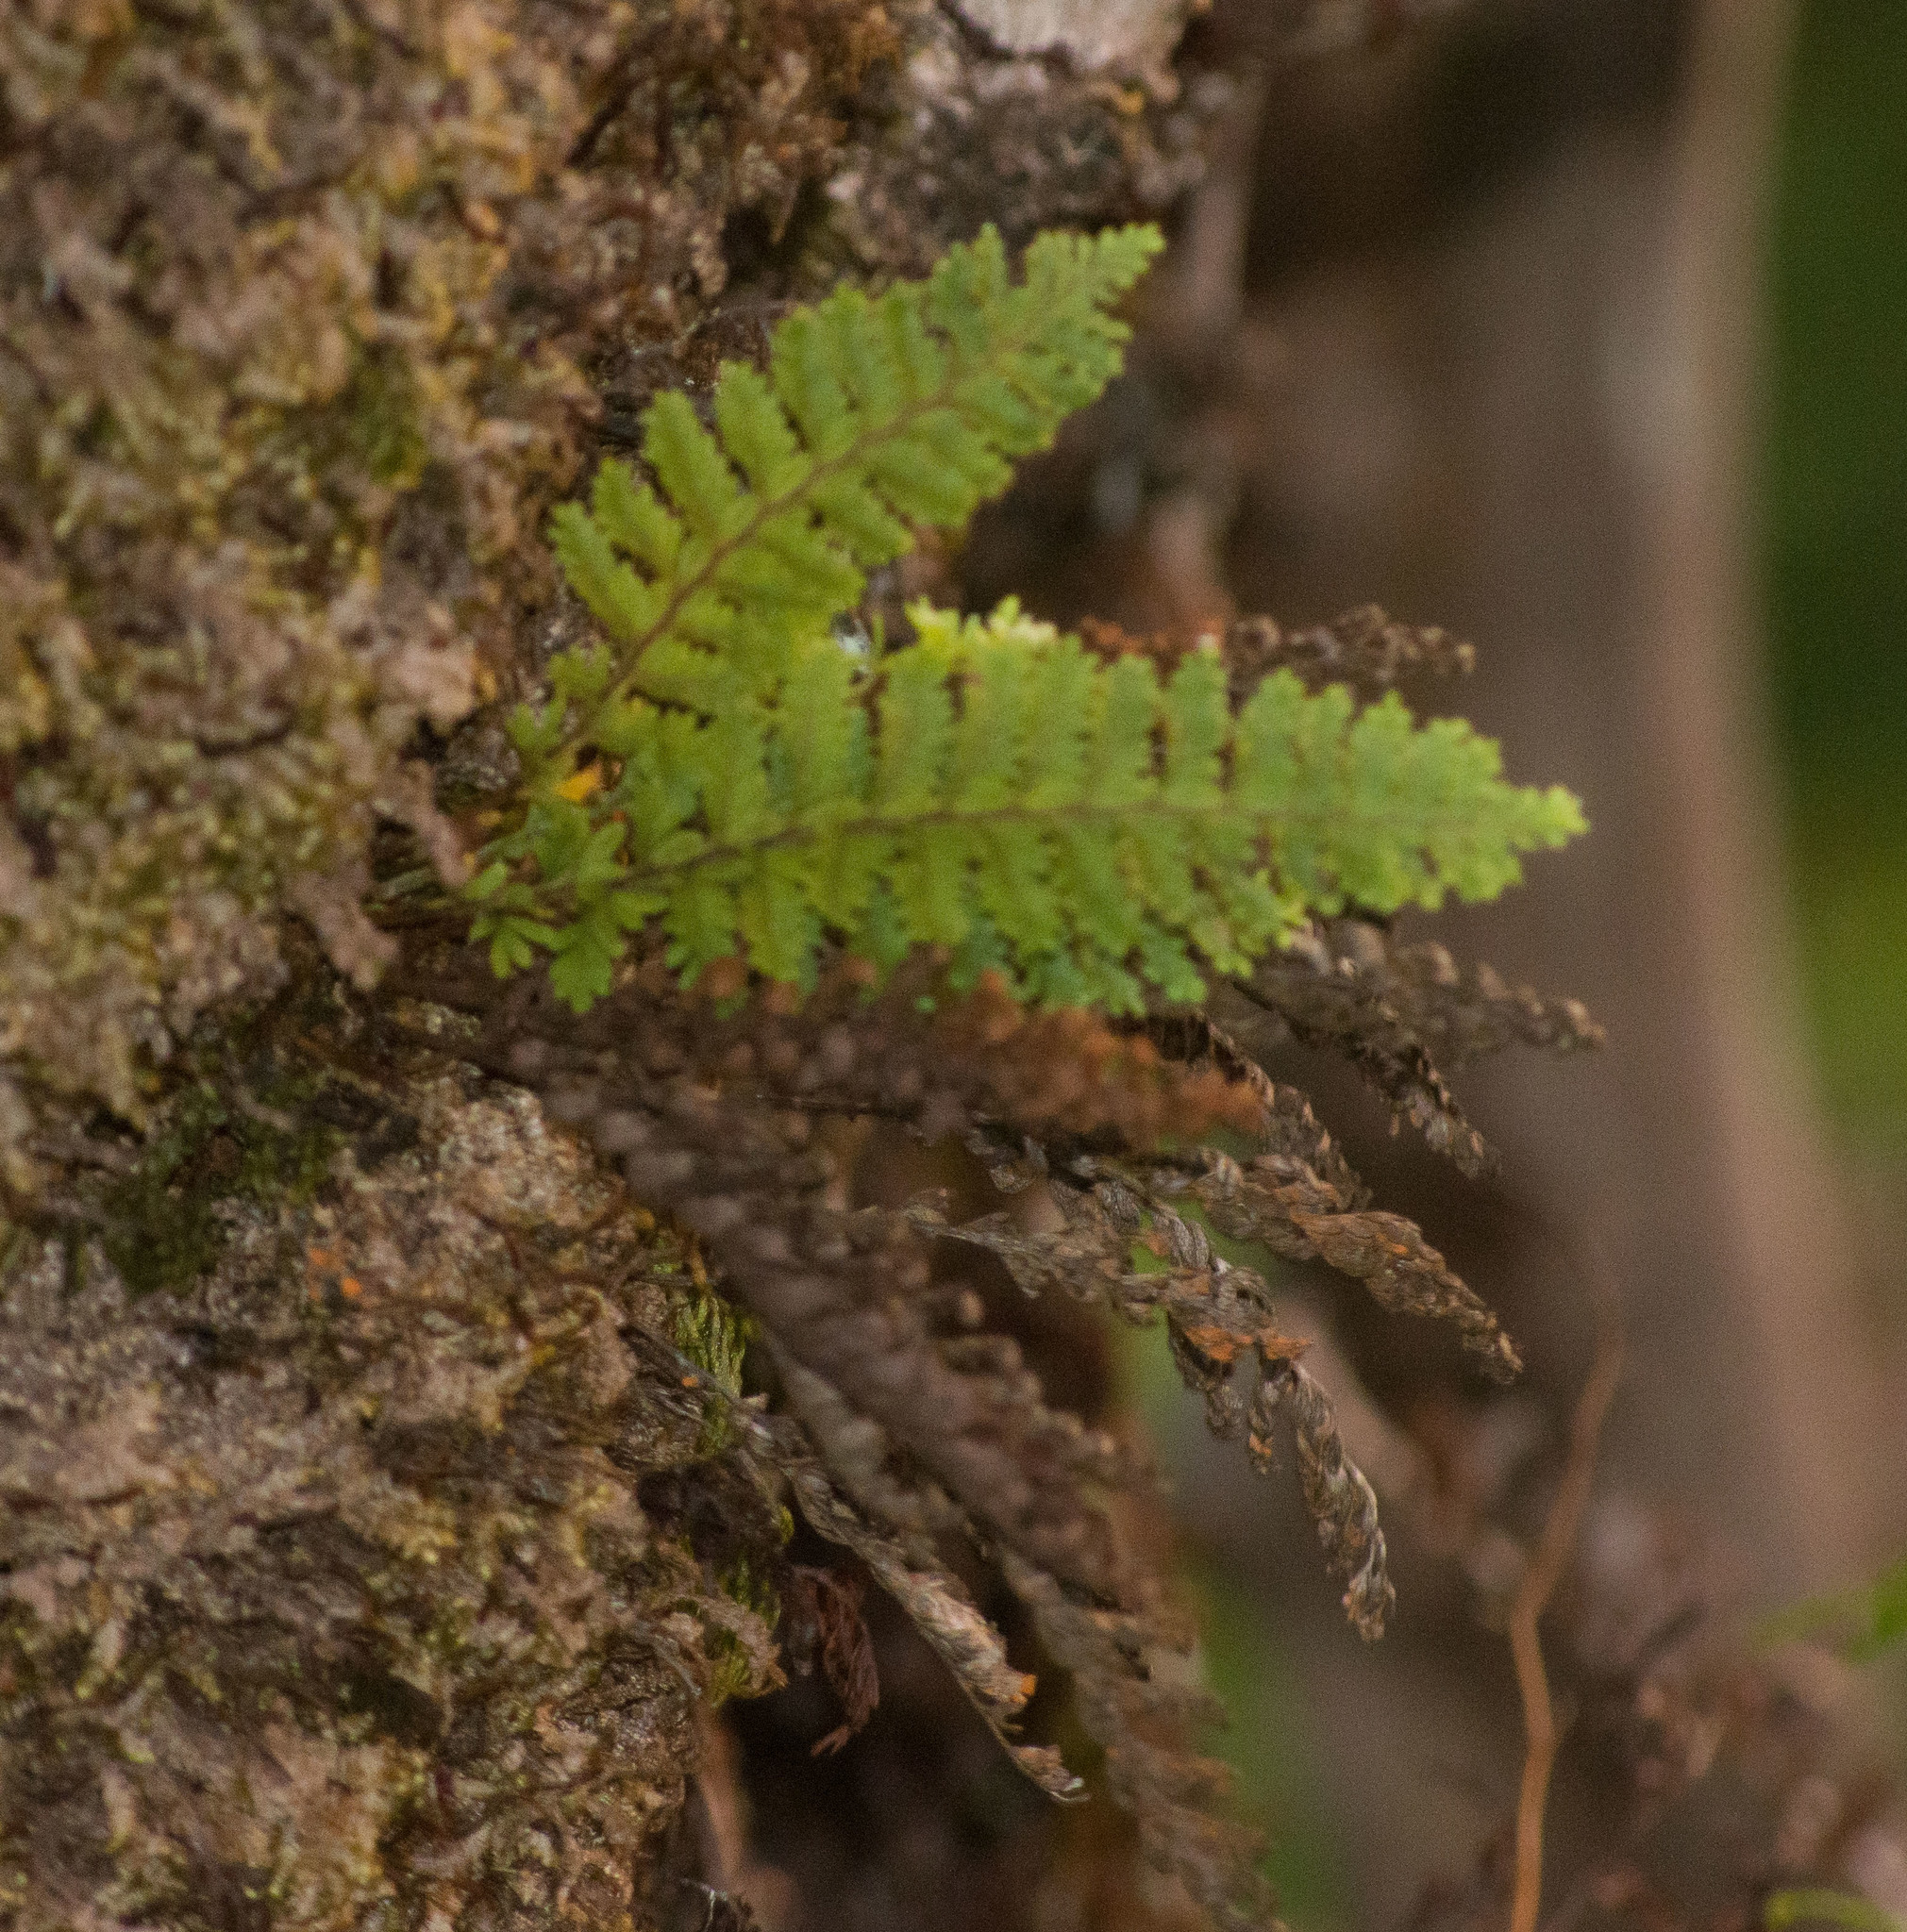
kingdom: Plantae
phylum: Tracheophyta
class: Polypodiopsida
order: Polypodiales
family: Polypodiaceae
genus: Adenophorus
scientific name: Adenophorus tamariscinus
